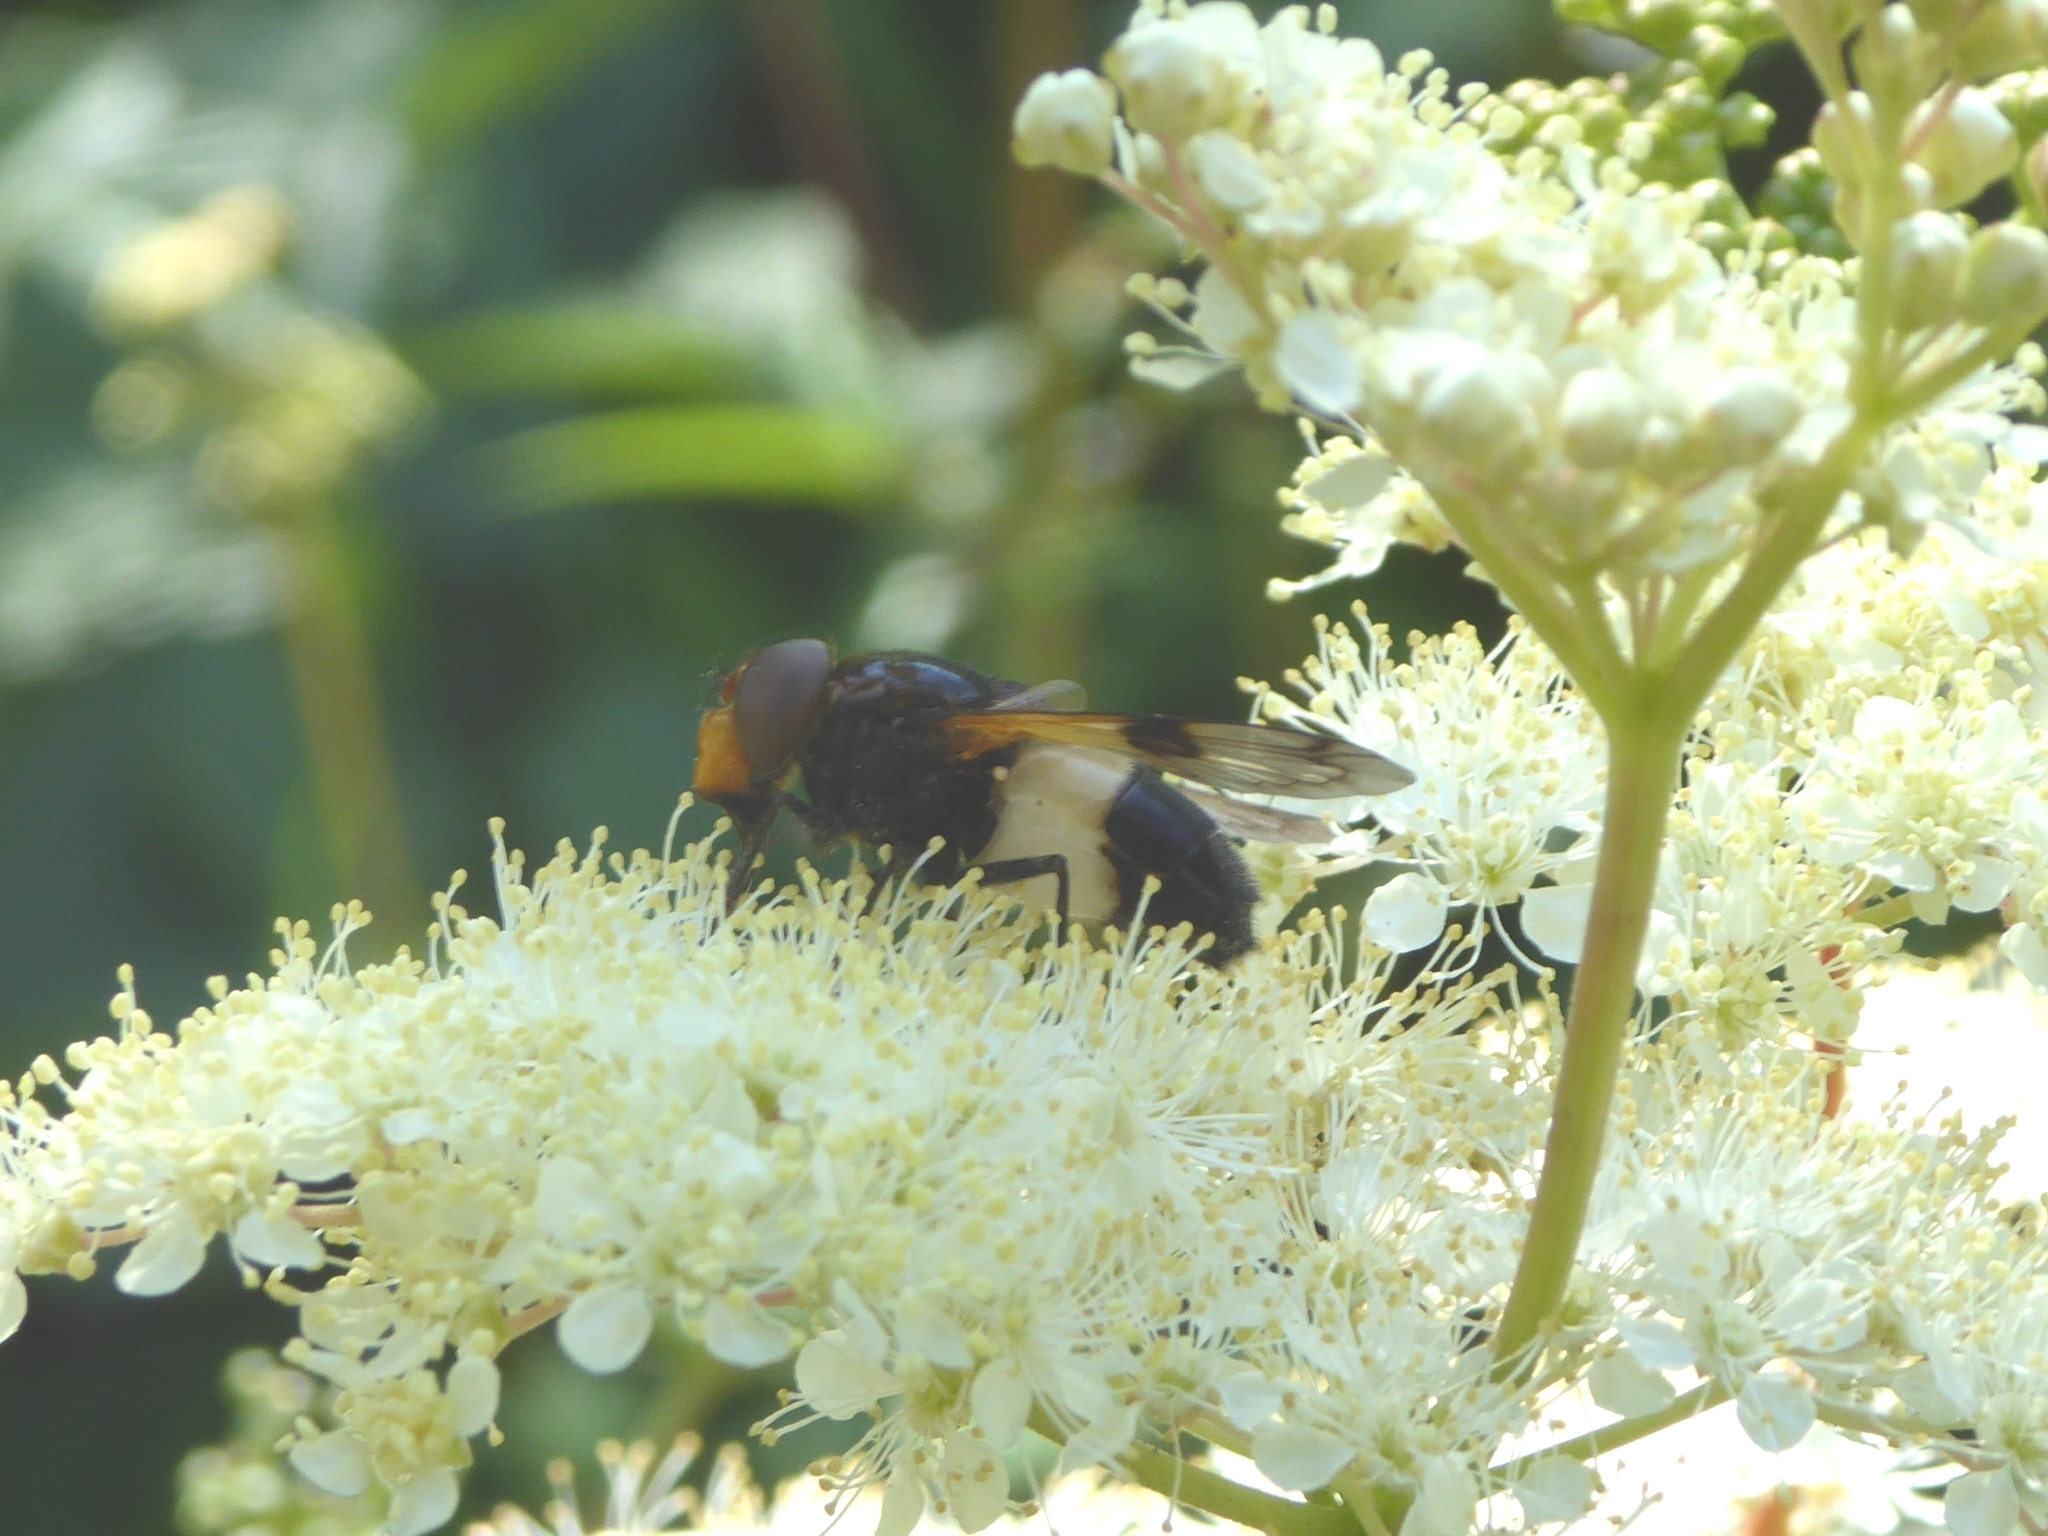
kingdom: Animalia
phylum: Arthropoda
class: Insecta
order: Diptera
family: Syrphidae
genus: Volucella
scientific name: Volucella pellucens
